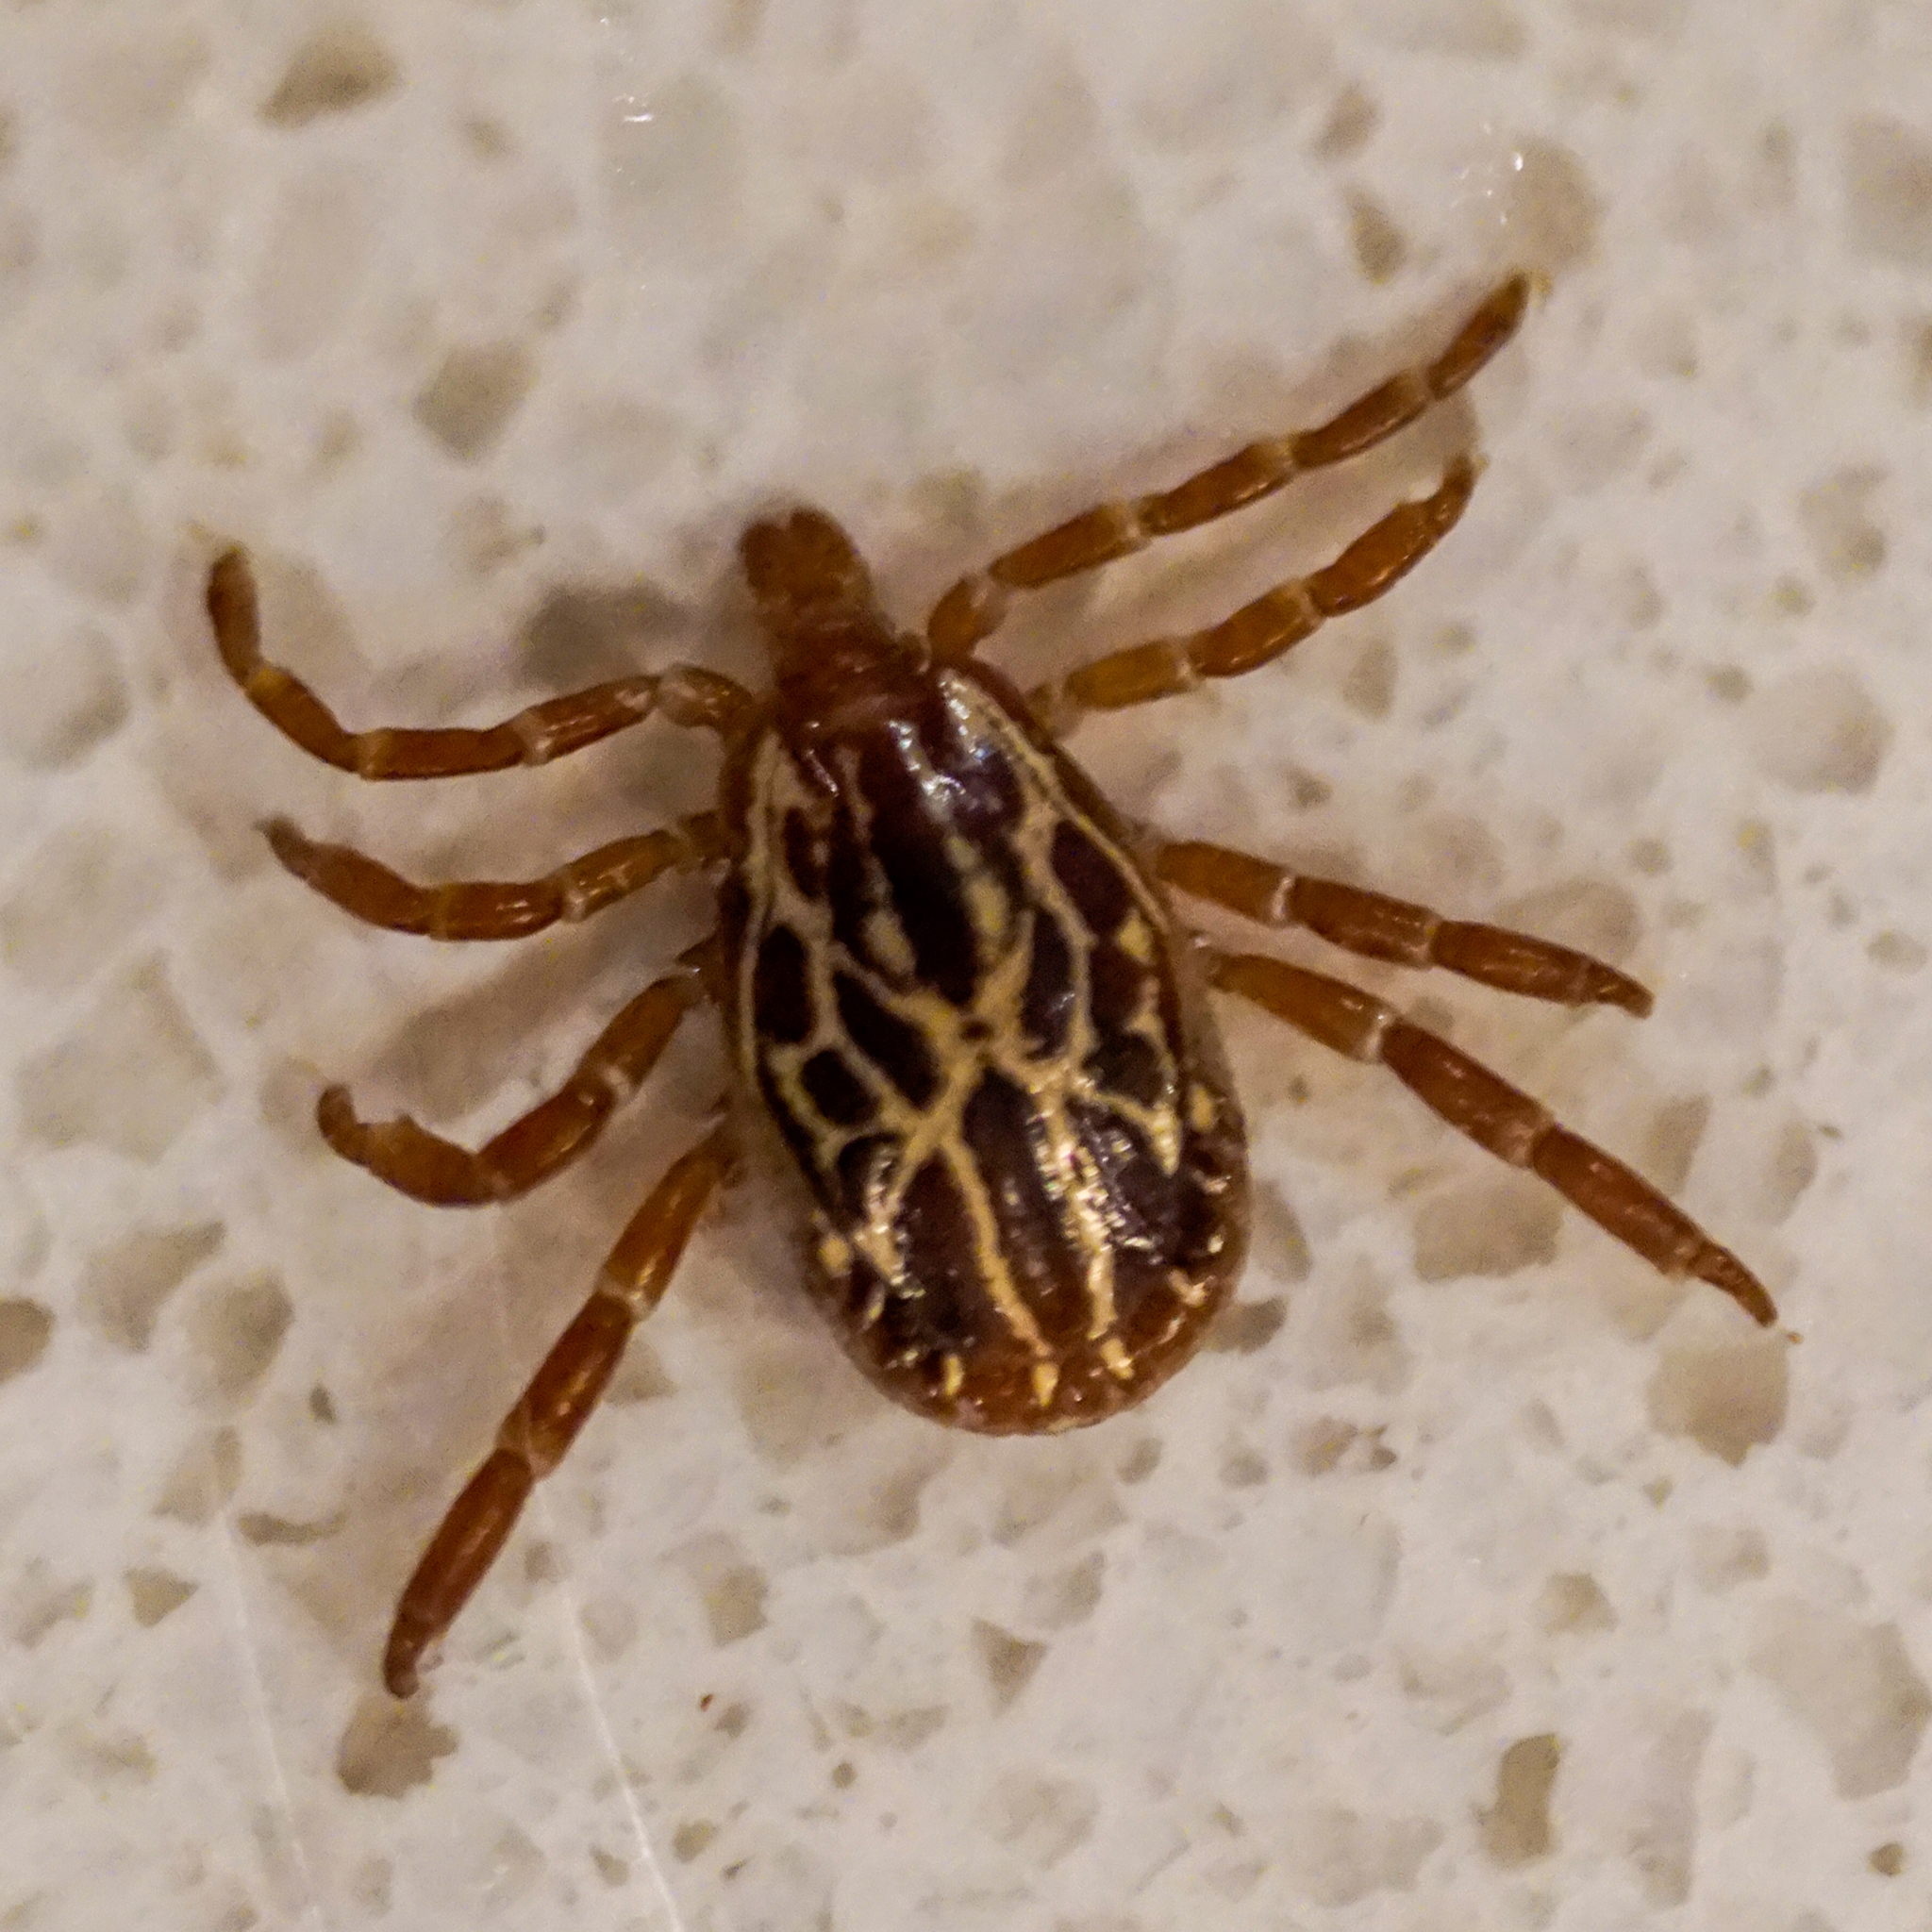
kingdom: Animalia
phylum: Arthropoda
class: Arachnida
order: Ixodida
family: Ixodidae
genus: Amblyomma
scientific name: Amblyomma maculatum
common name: Gulf coast tick
